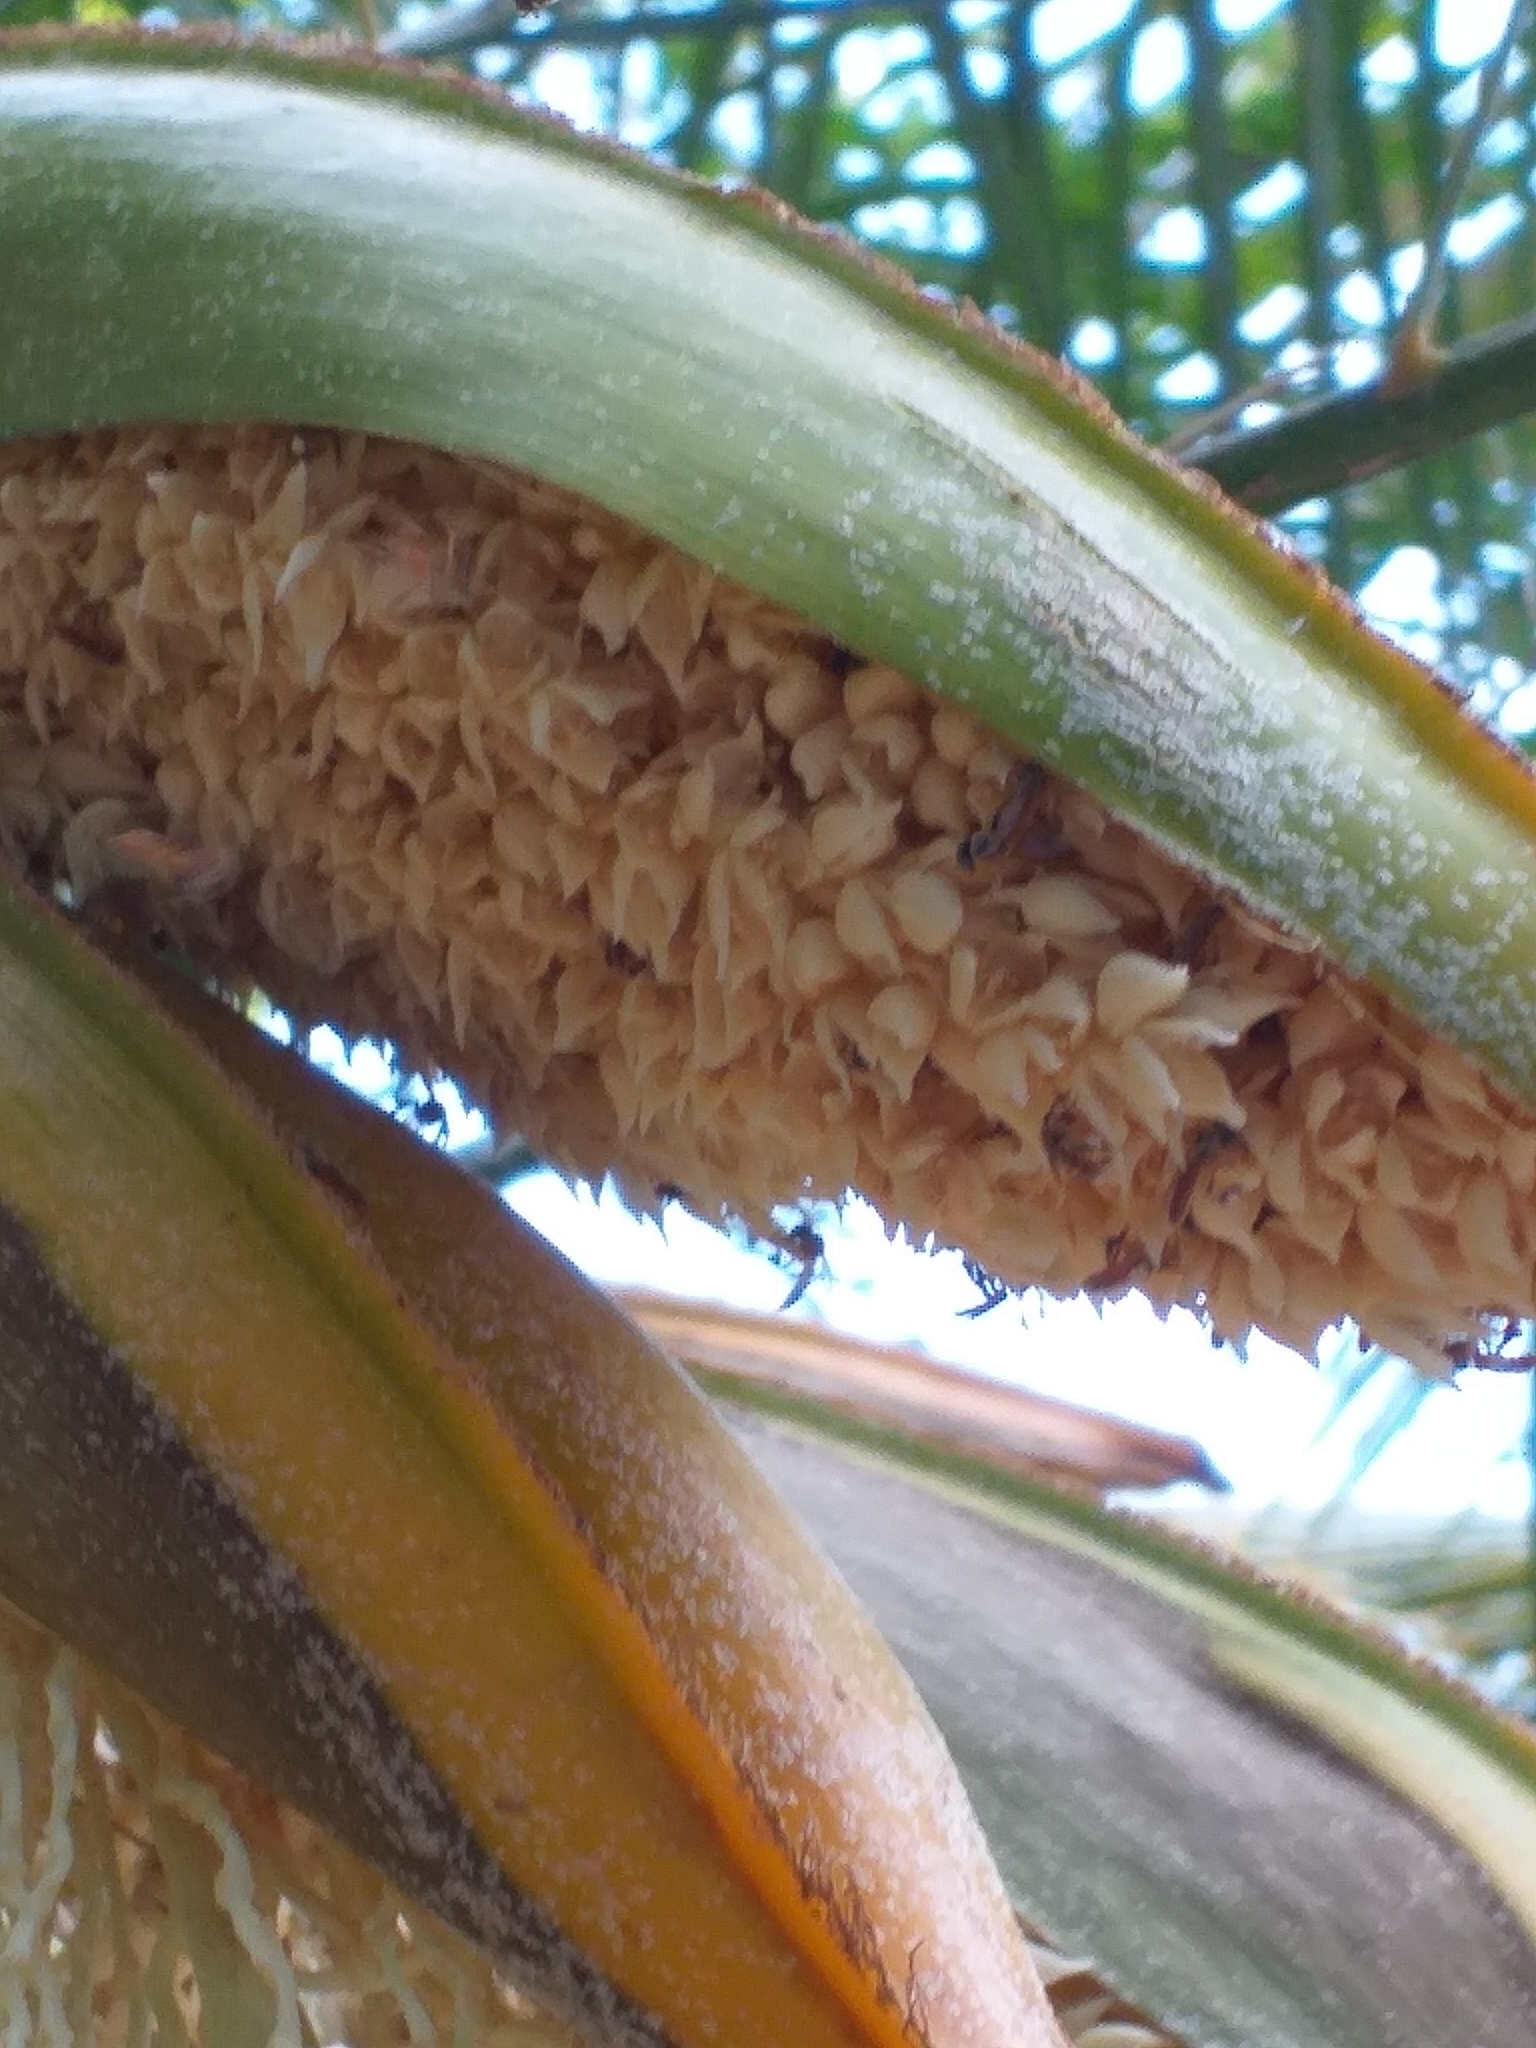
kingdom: Plantae
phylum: Tracheophyta
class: Liliopsida
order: Arecales
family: Arecaceae
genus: Phoenix
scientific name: Phoenix roebelenii
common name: Roebelin palm
